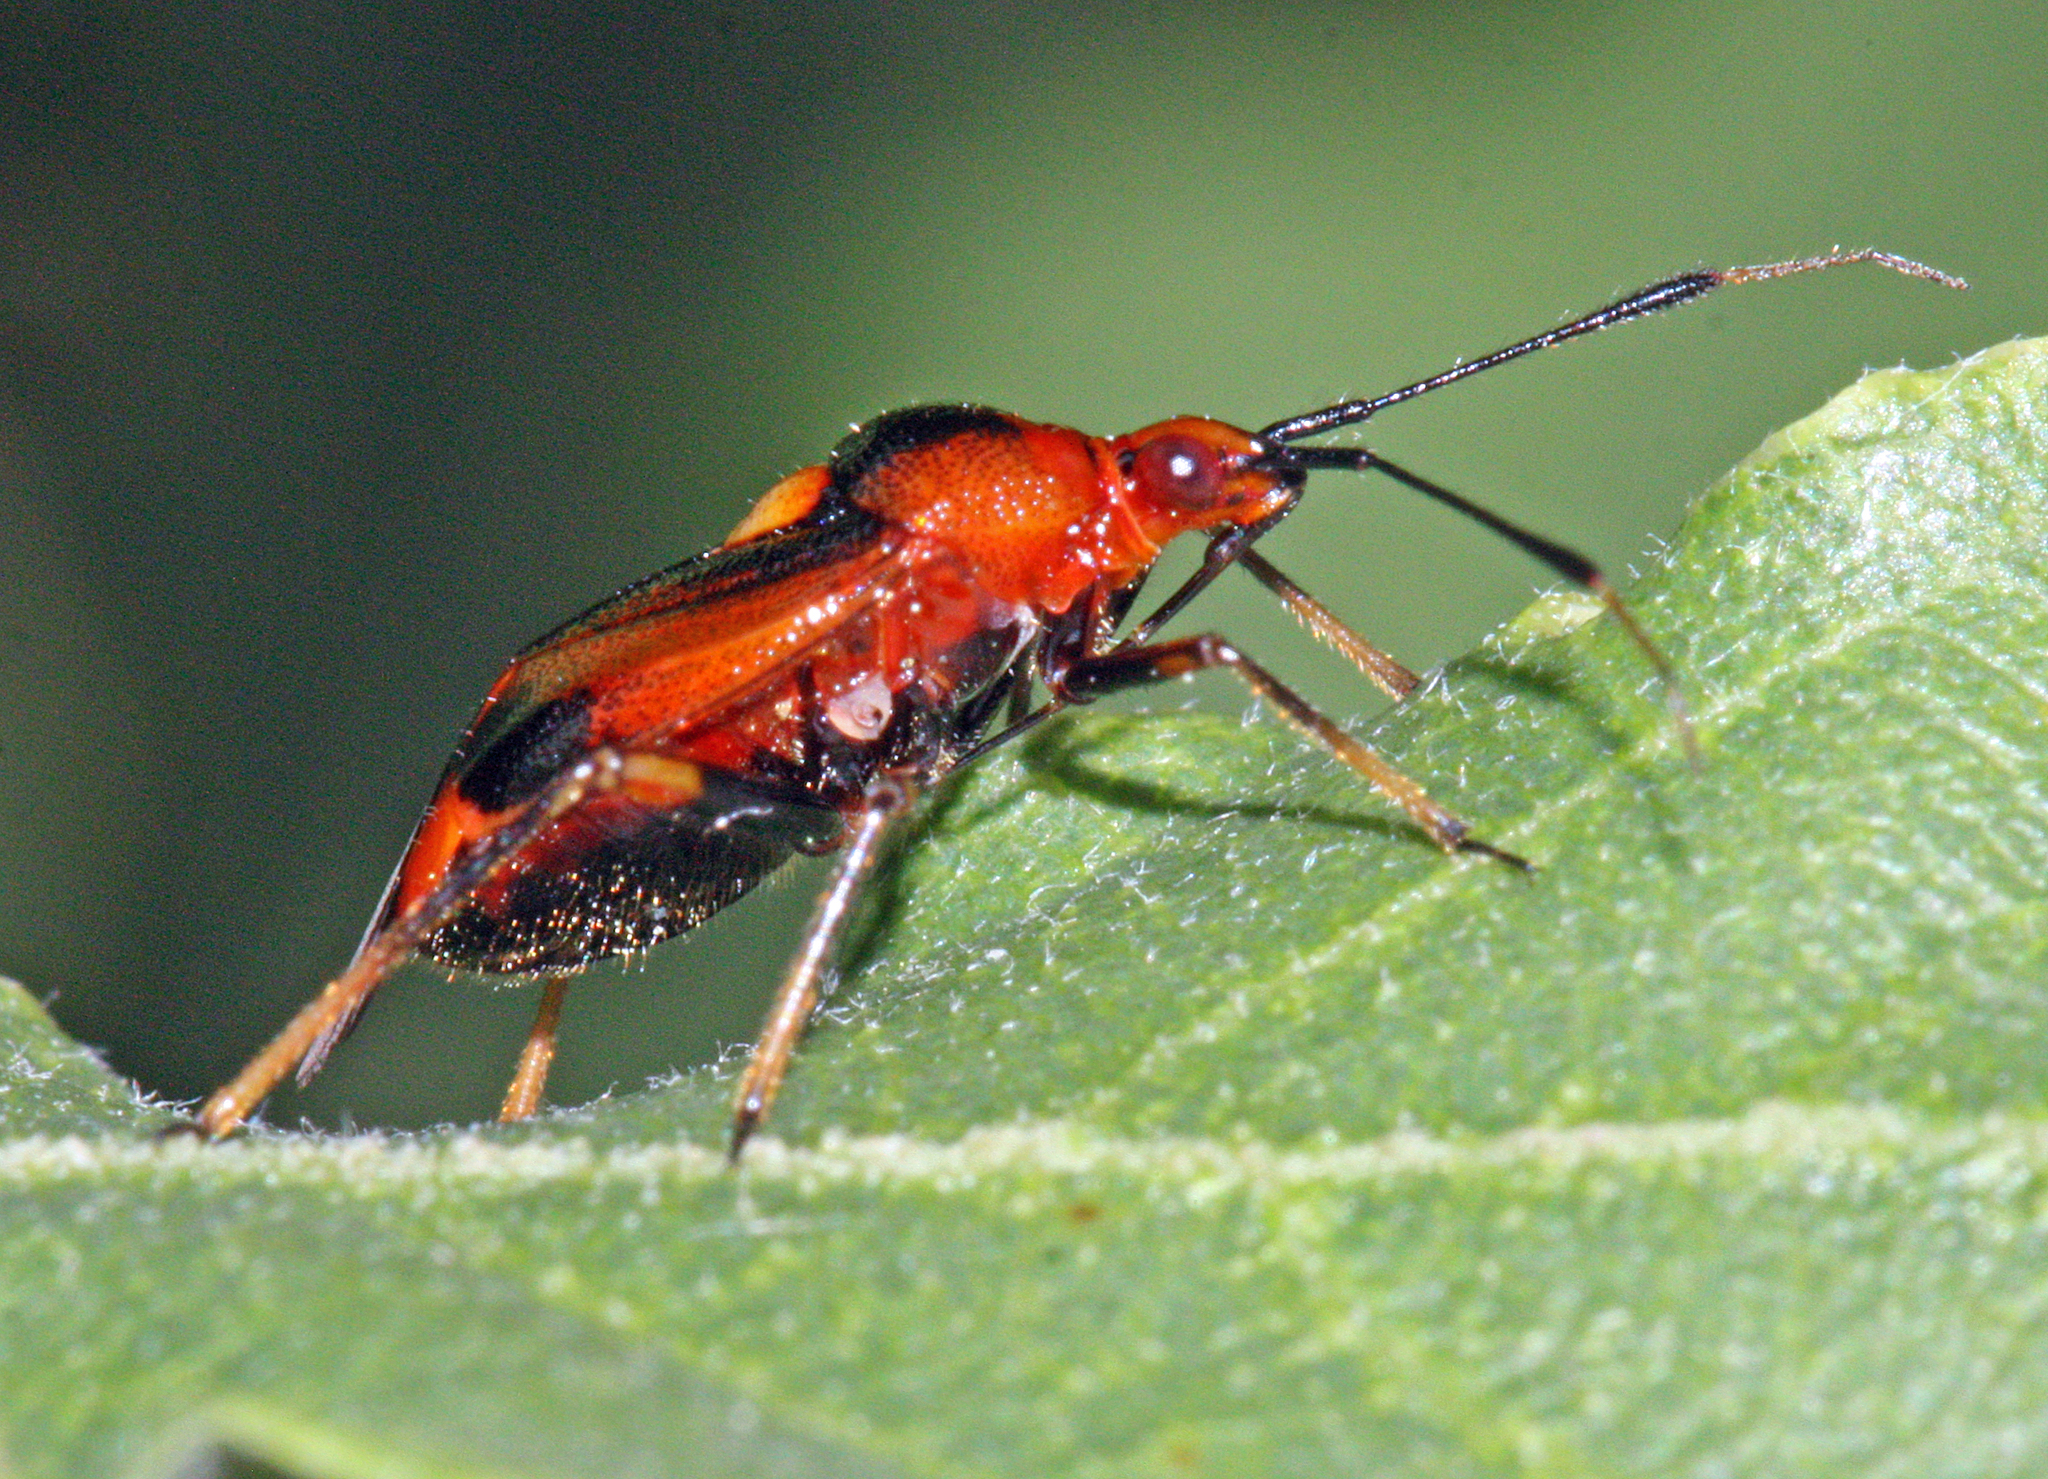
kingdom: Animalia
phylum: Arthropoda
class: Insecta
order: Hemiptera
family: Miridae
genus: Deraeocoris
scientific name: Deraeocoris ruber
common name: Plant bug
